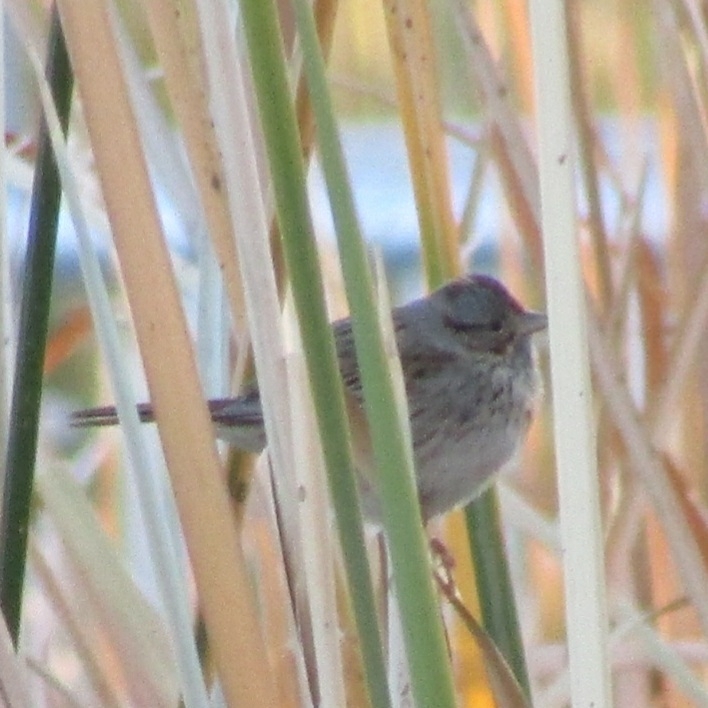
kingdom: Animalia
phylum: Chordata
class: Aves
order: Passeriformes
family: Passerellidae
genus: Melospiza
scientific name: Melospiza lincolnii
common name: Lincoln's sparrow
